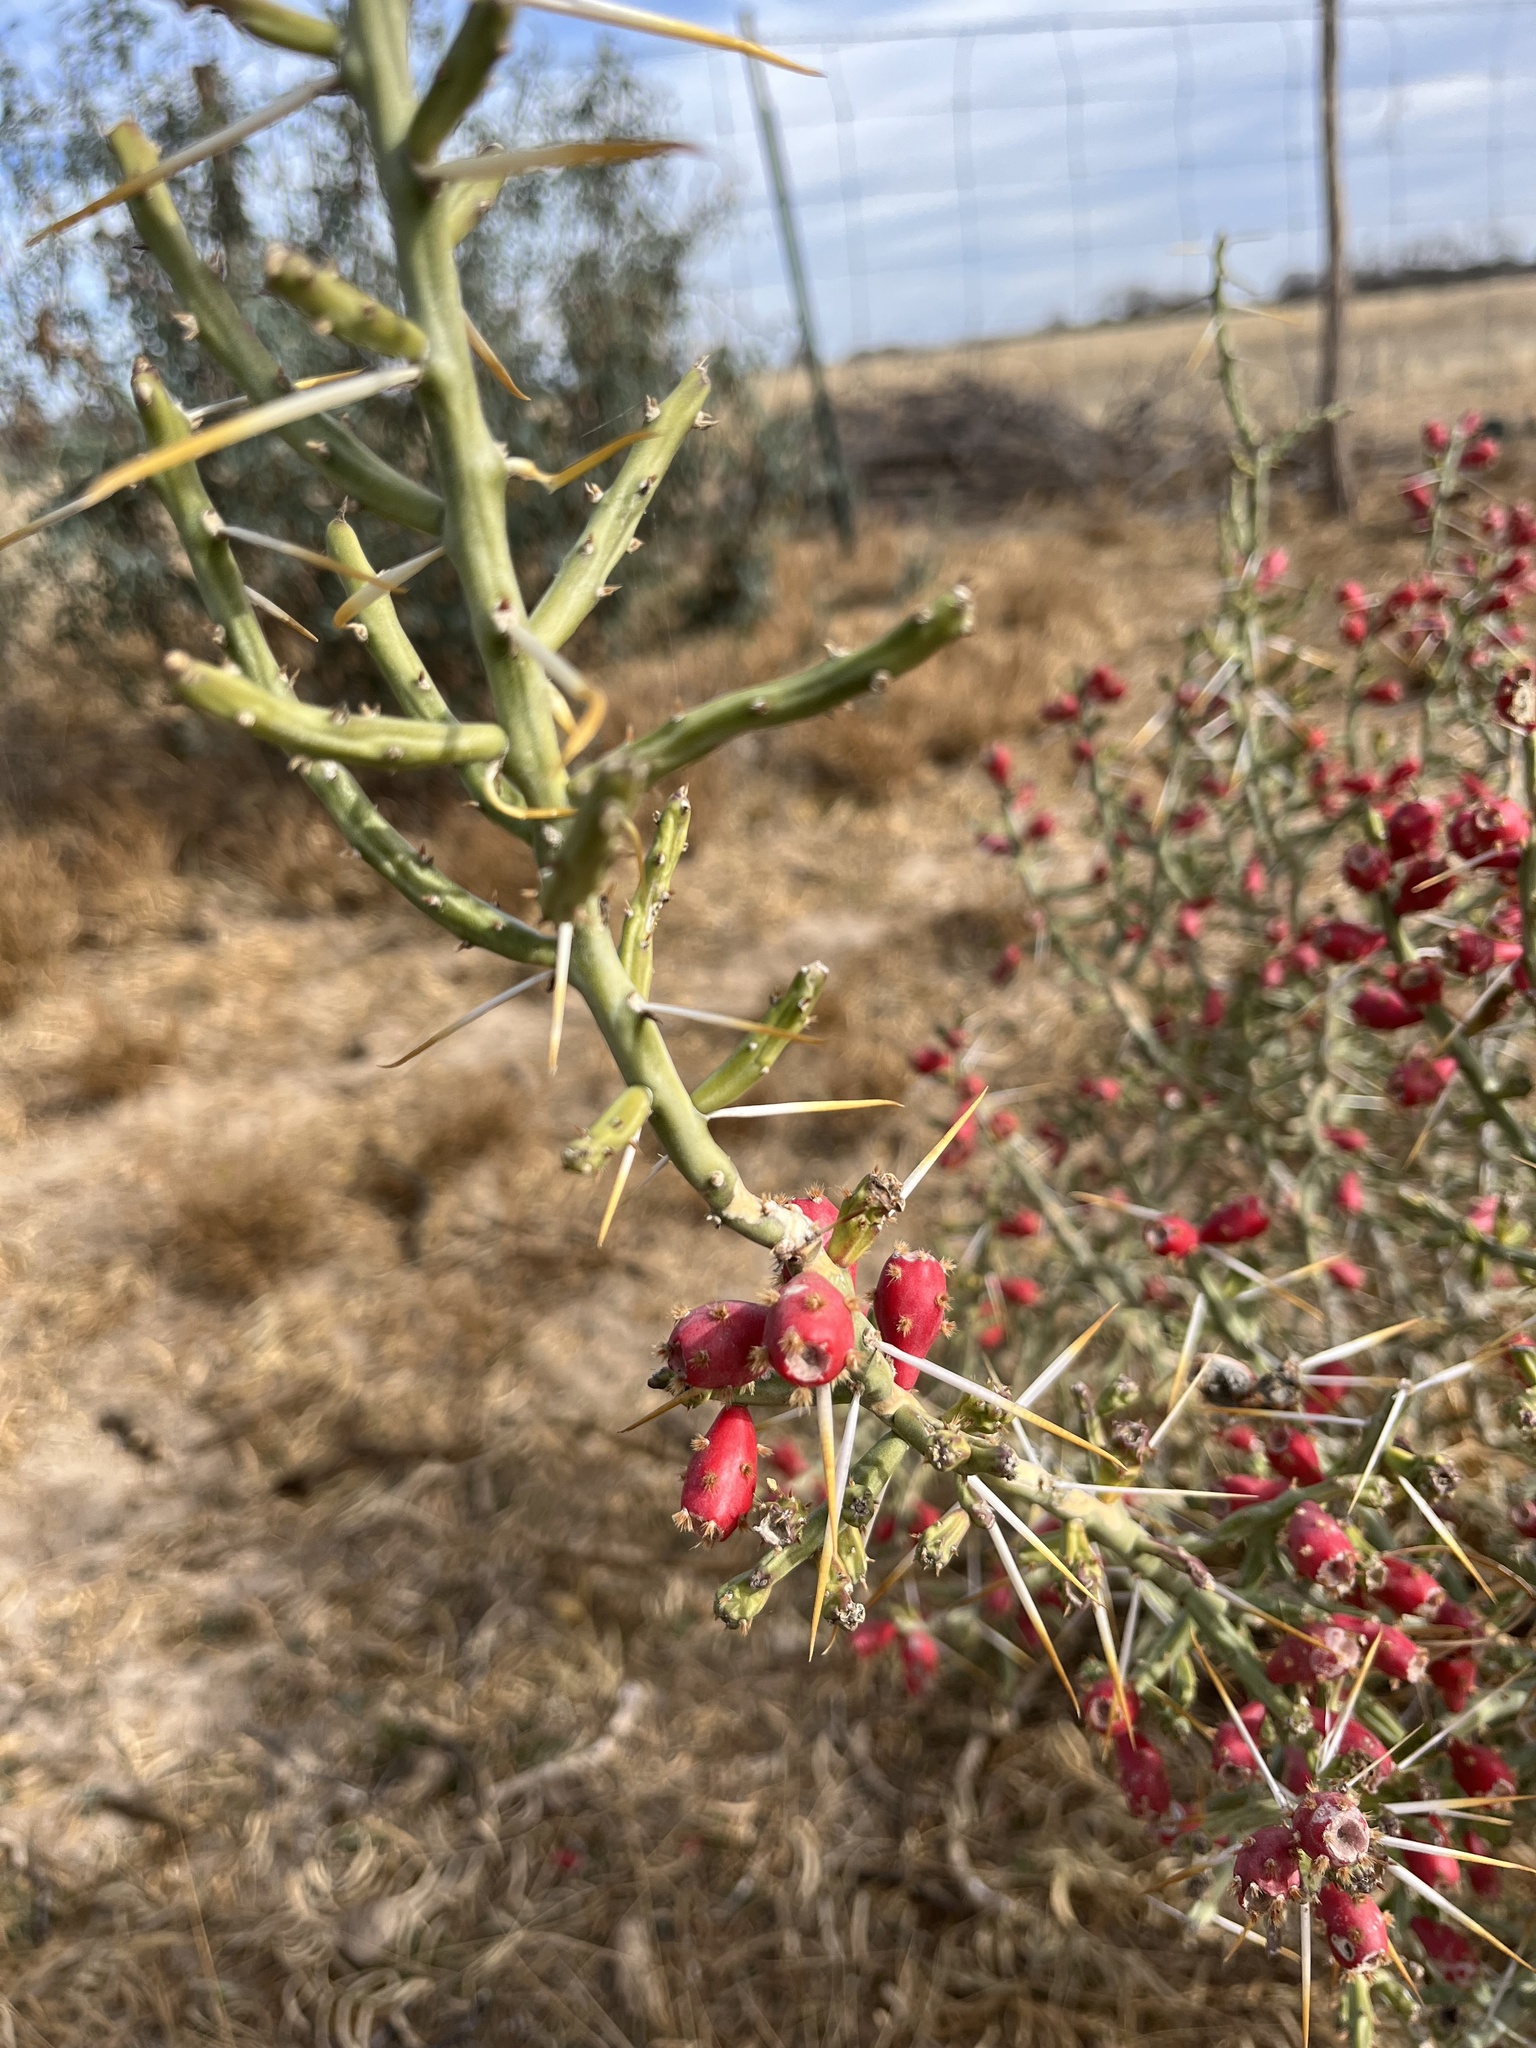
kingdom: Plantae
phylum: Tracheophyta
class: Magnoliopsida
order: Caryophyllales
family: Cactaceae
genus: Cylindropuntia
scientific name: Cylindropuntia leptocaulis
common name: Christmas cactus
